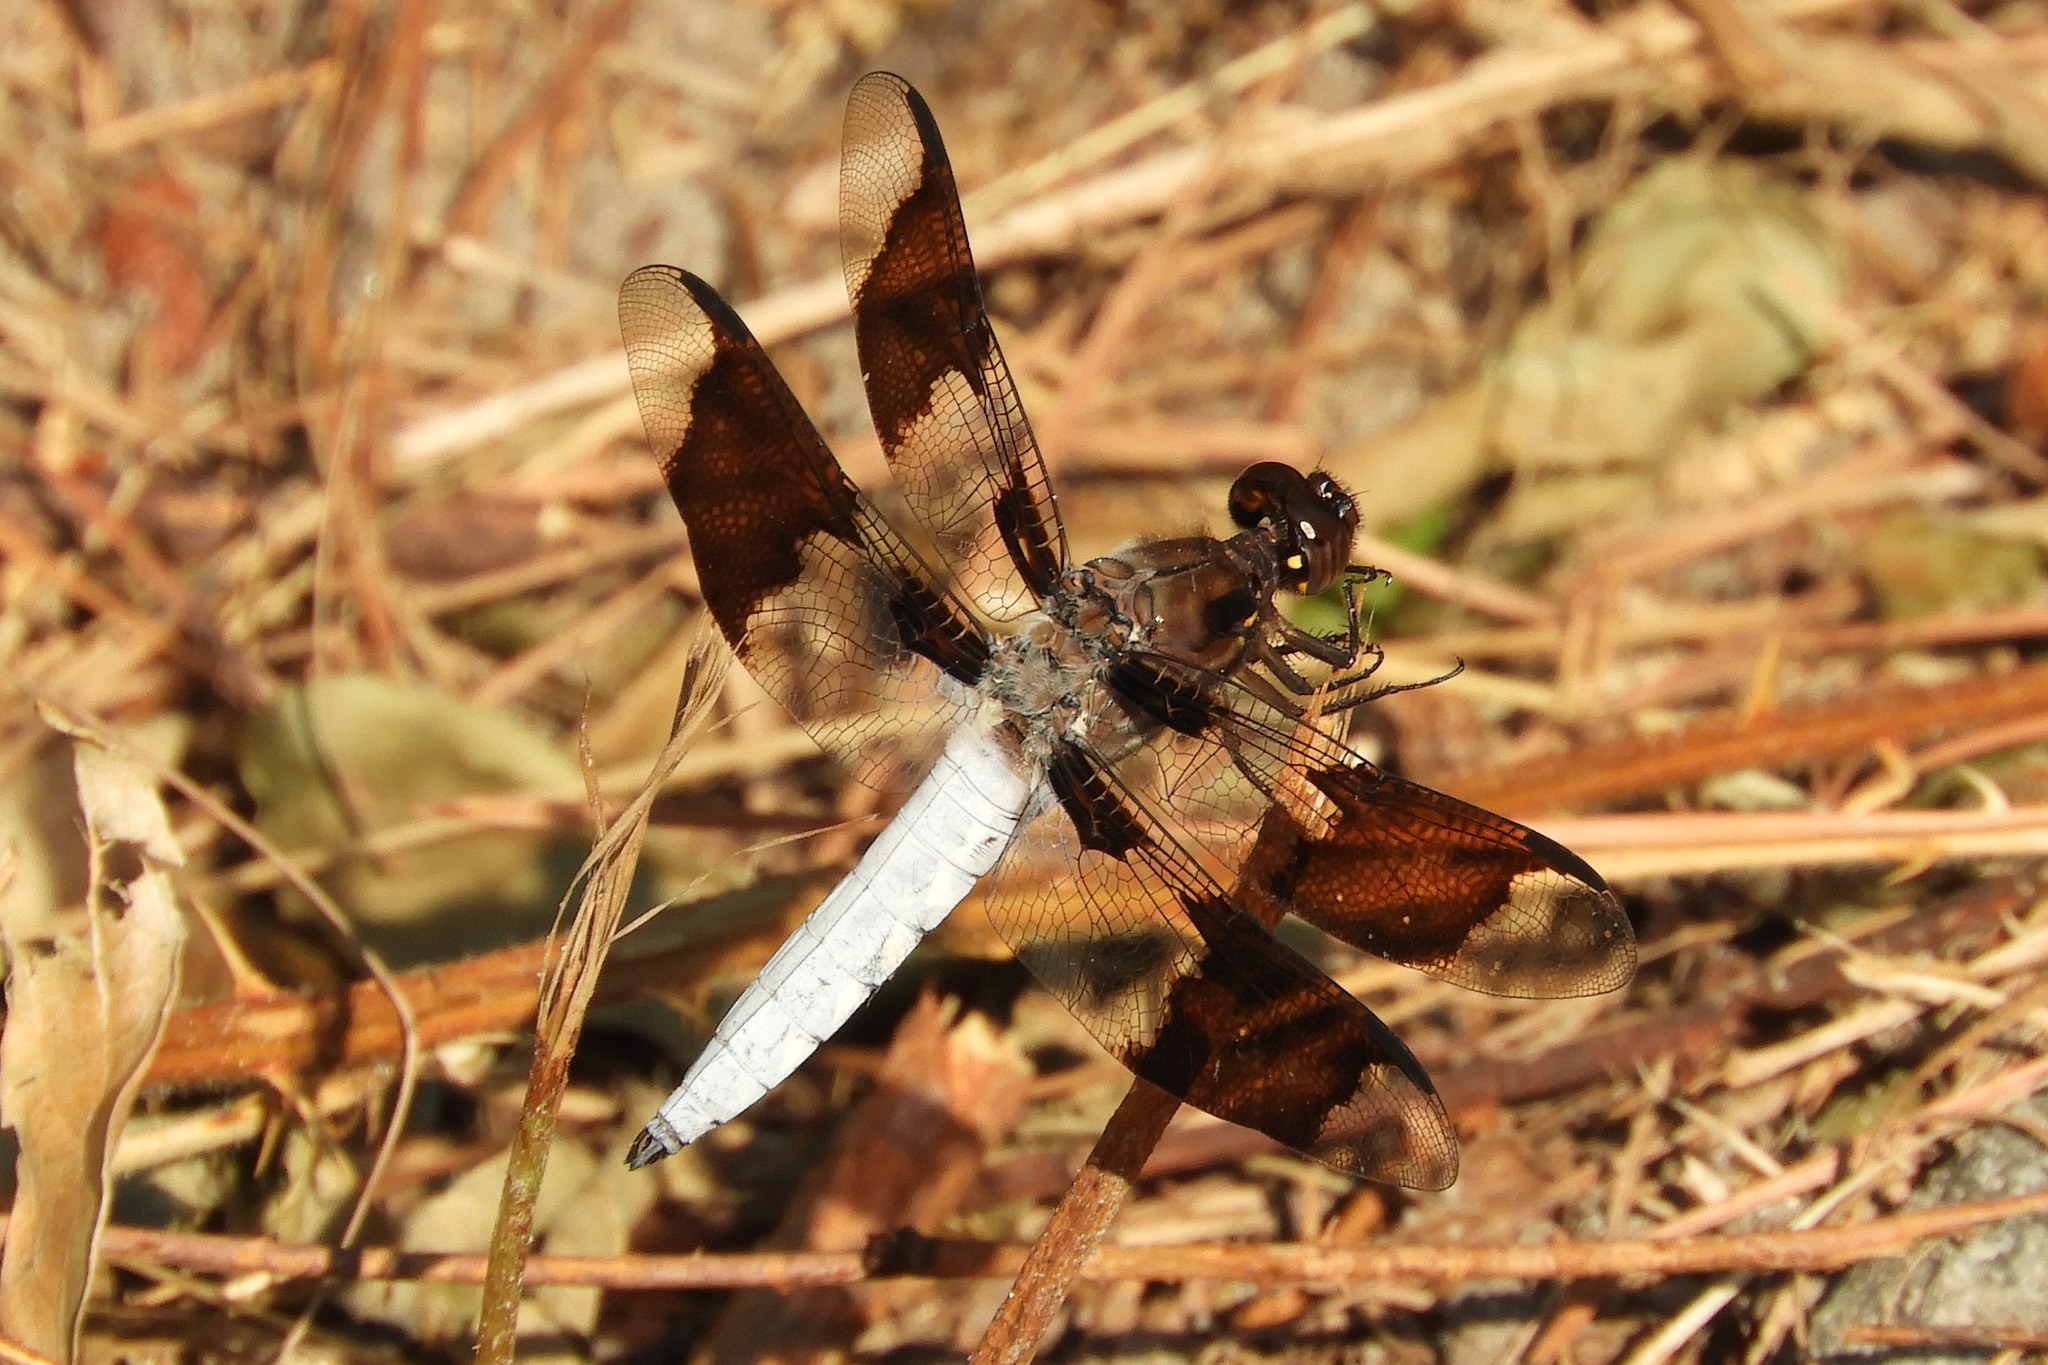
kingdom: Animalia
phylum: Arthropoda
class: Insecta
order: Odonata
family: Libellulidae
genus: Plathemis
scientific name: Plathemis lydia
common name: Common whitetail
